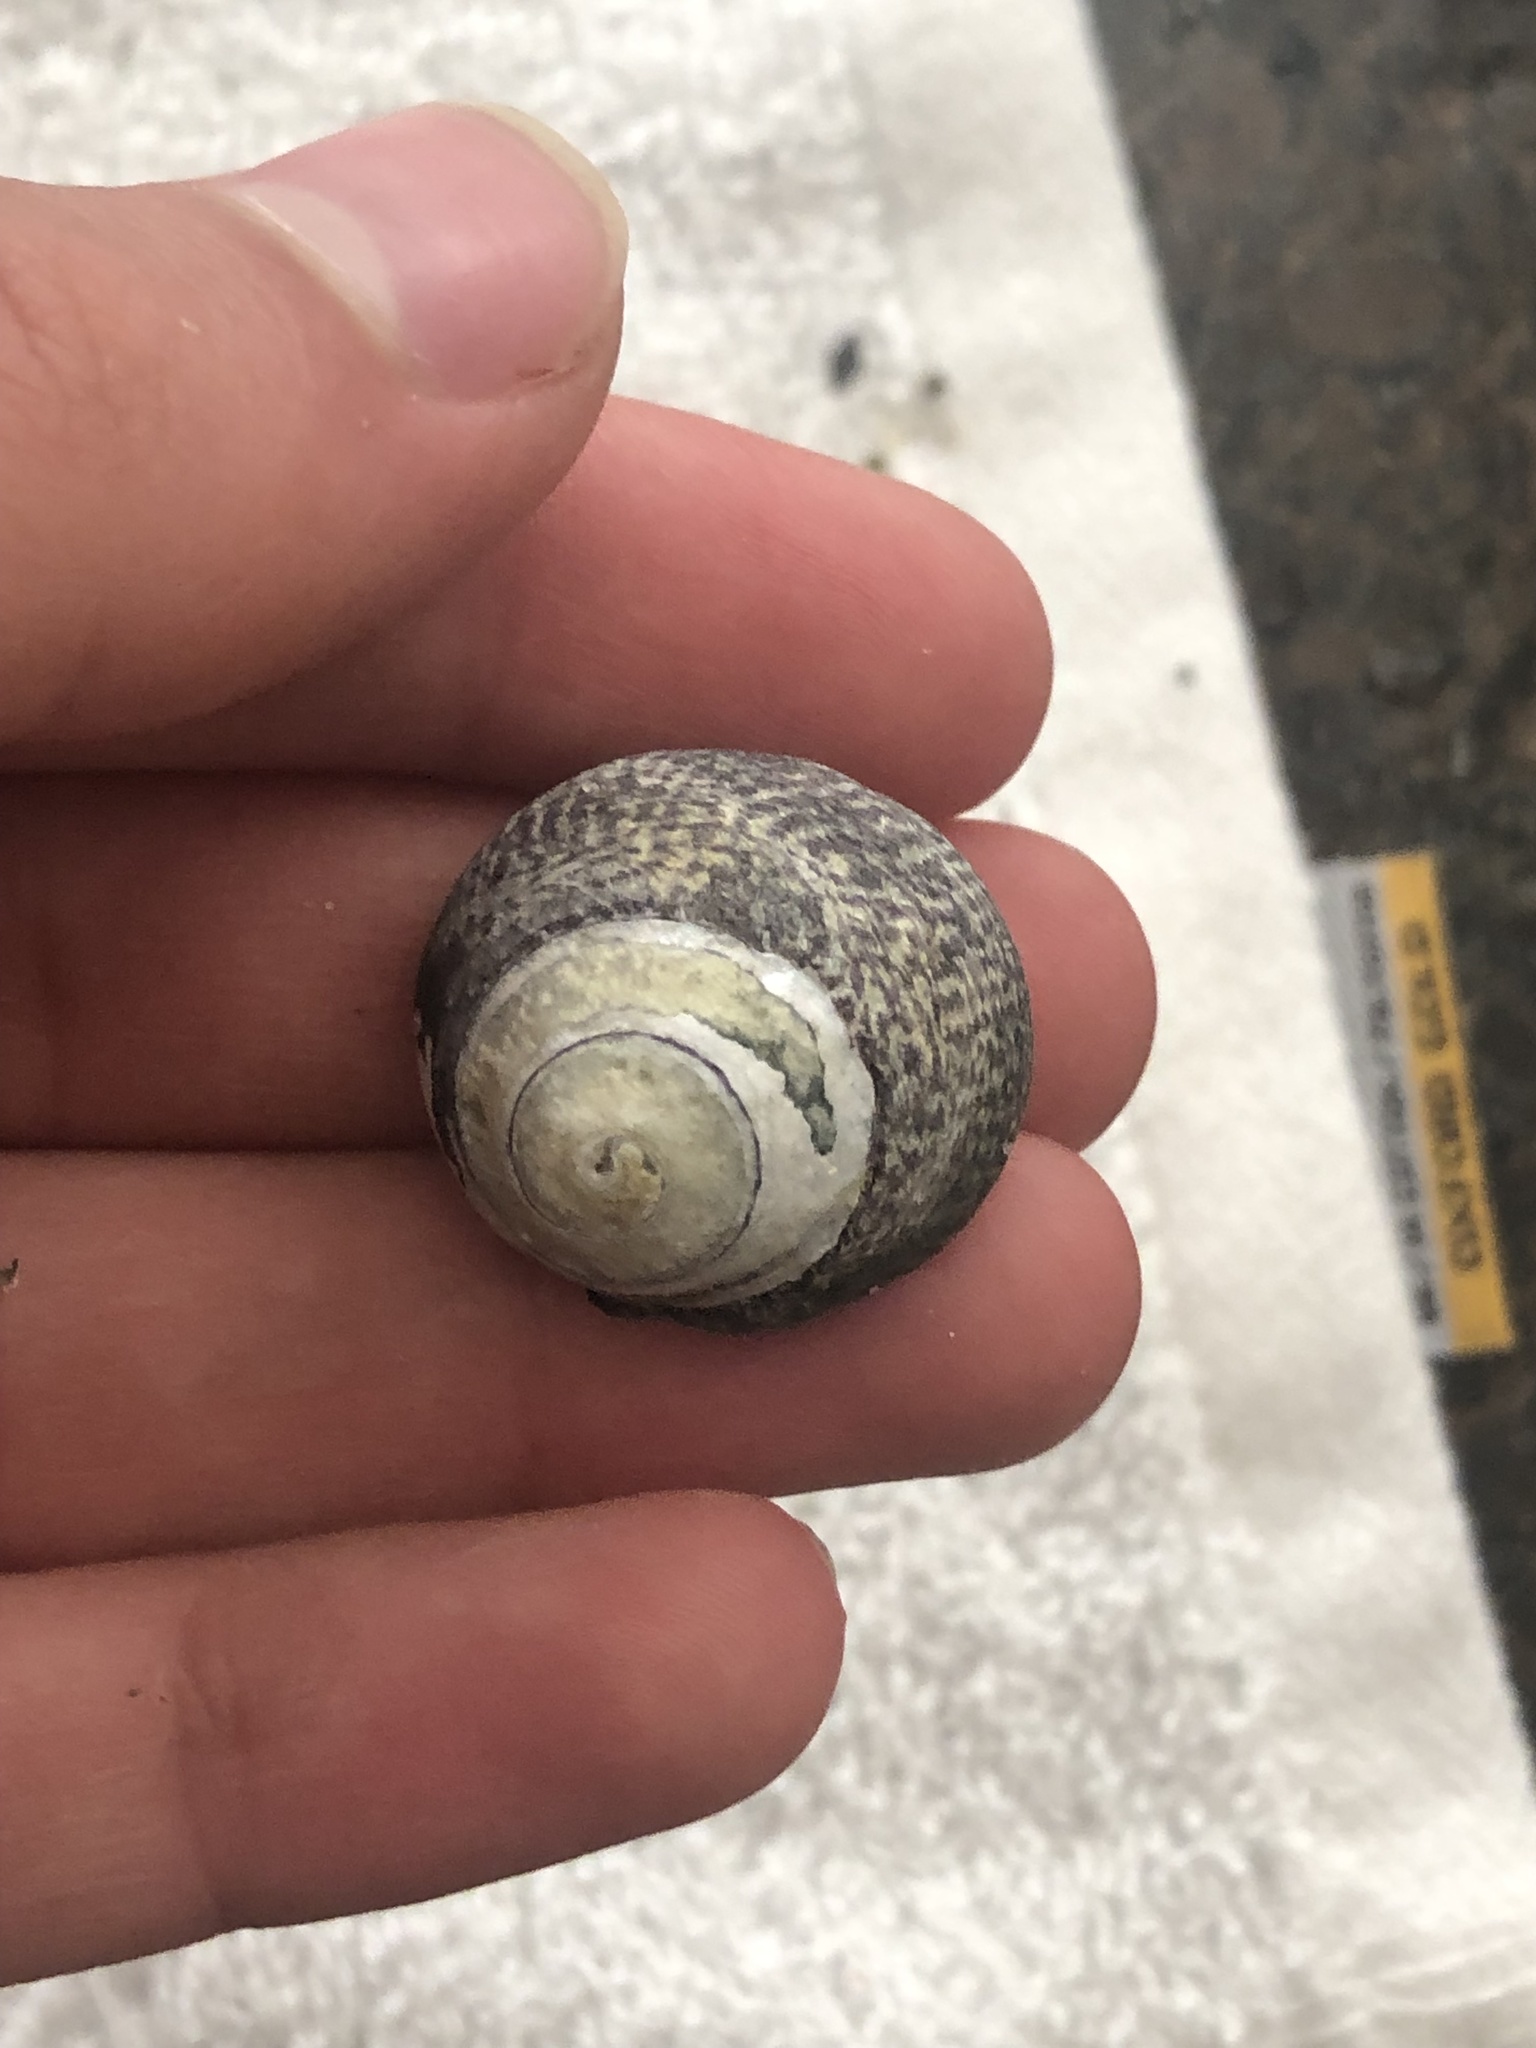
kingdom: Animalia
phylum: Mollusca
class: Gastropoda
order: Trochida
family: Tegulidae
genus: Tegula
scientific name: Tegula gallina
